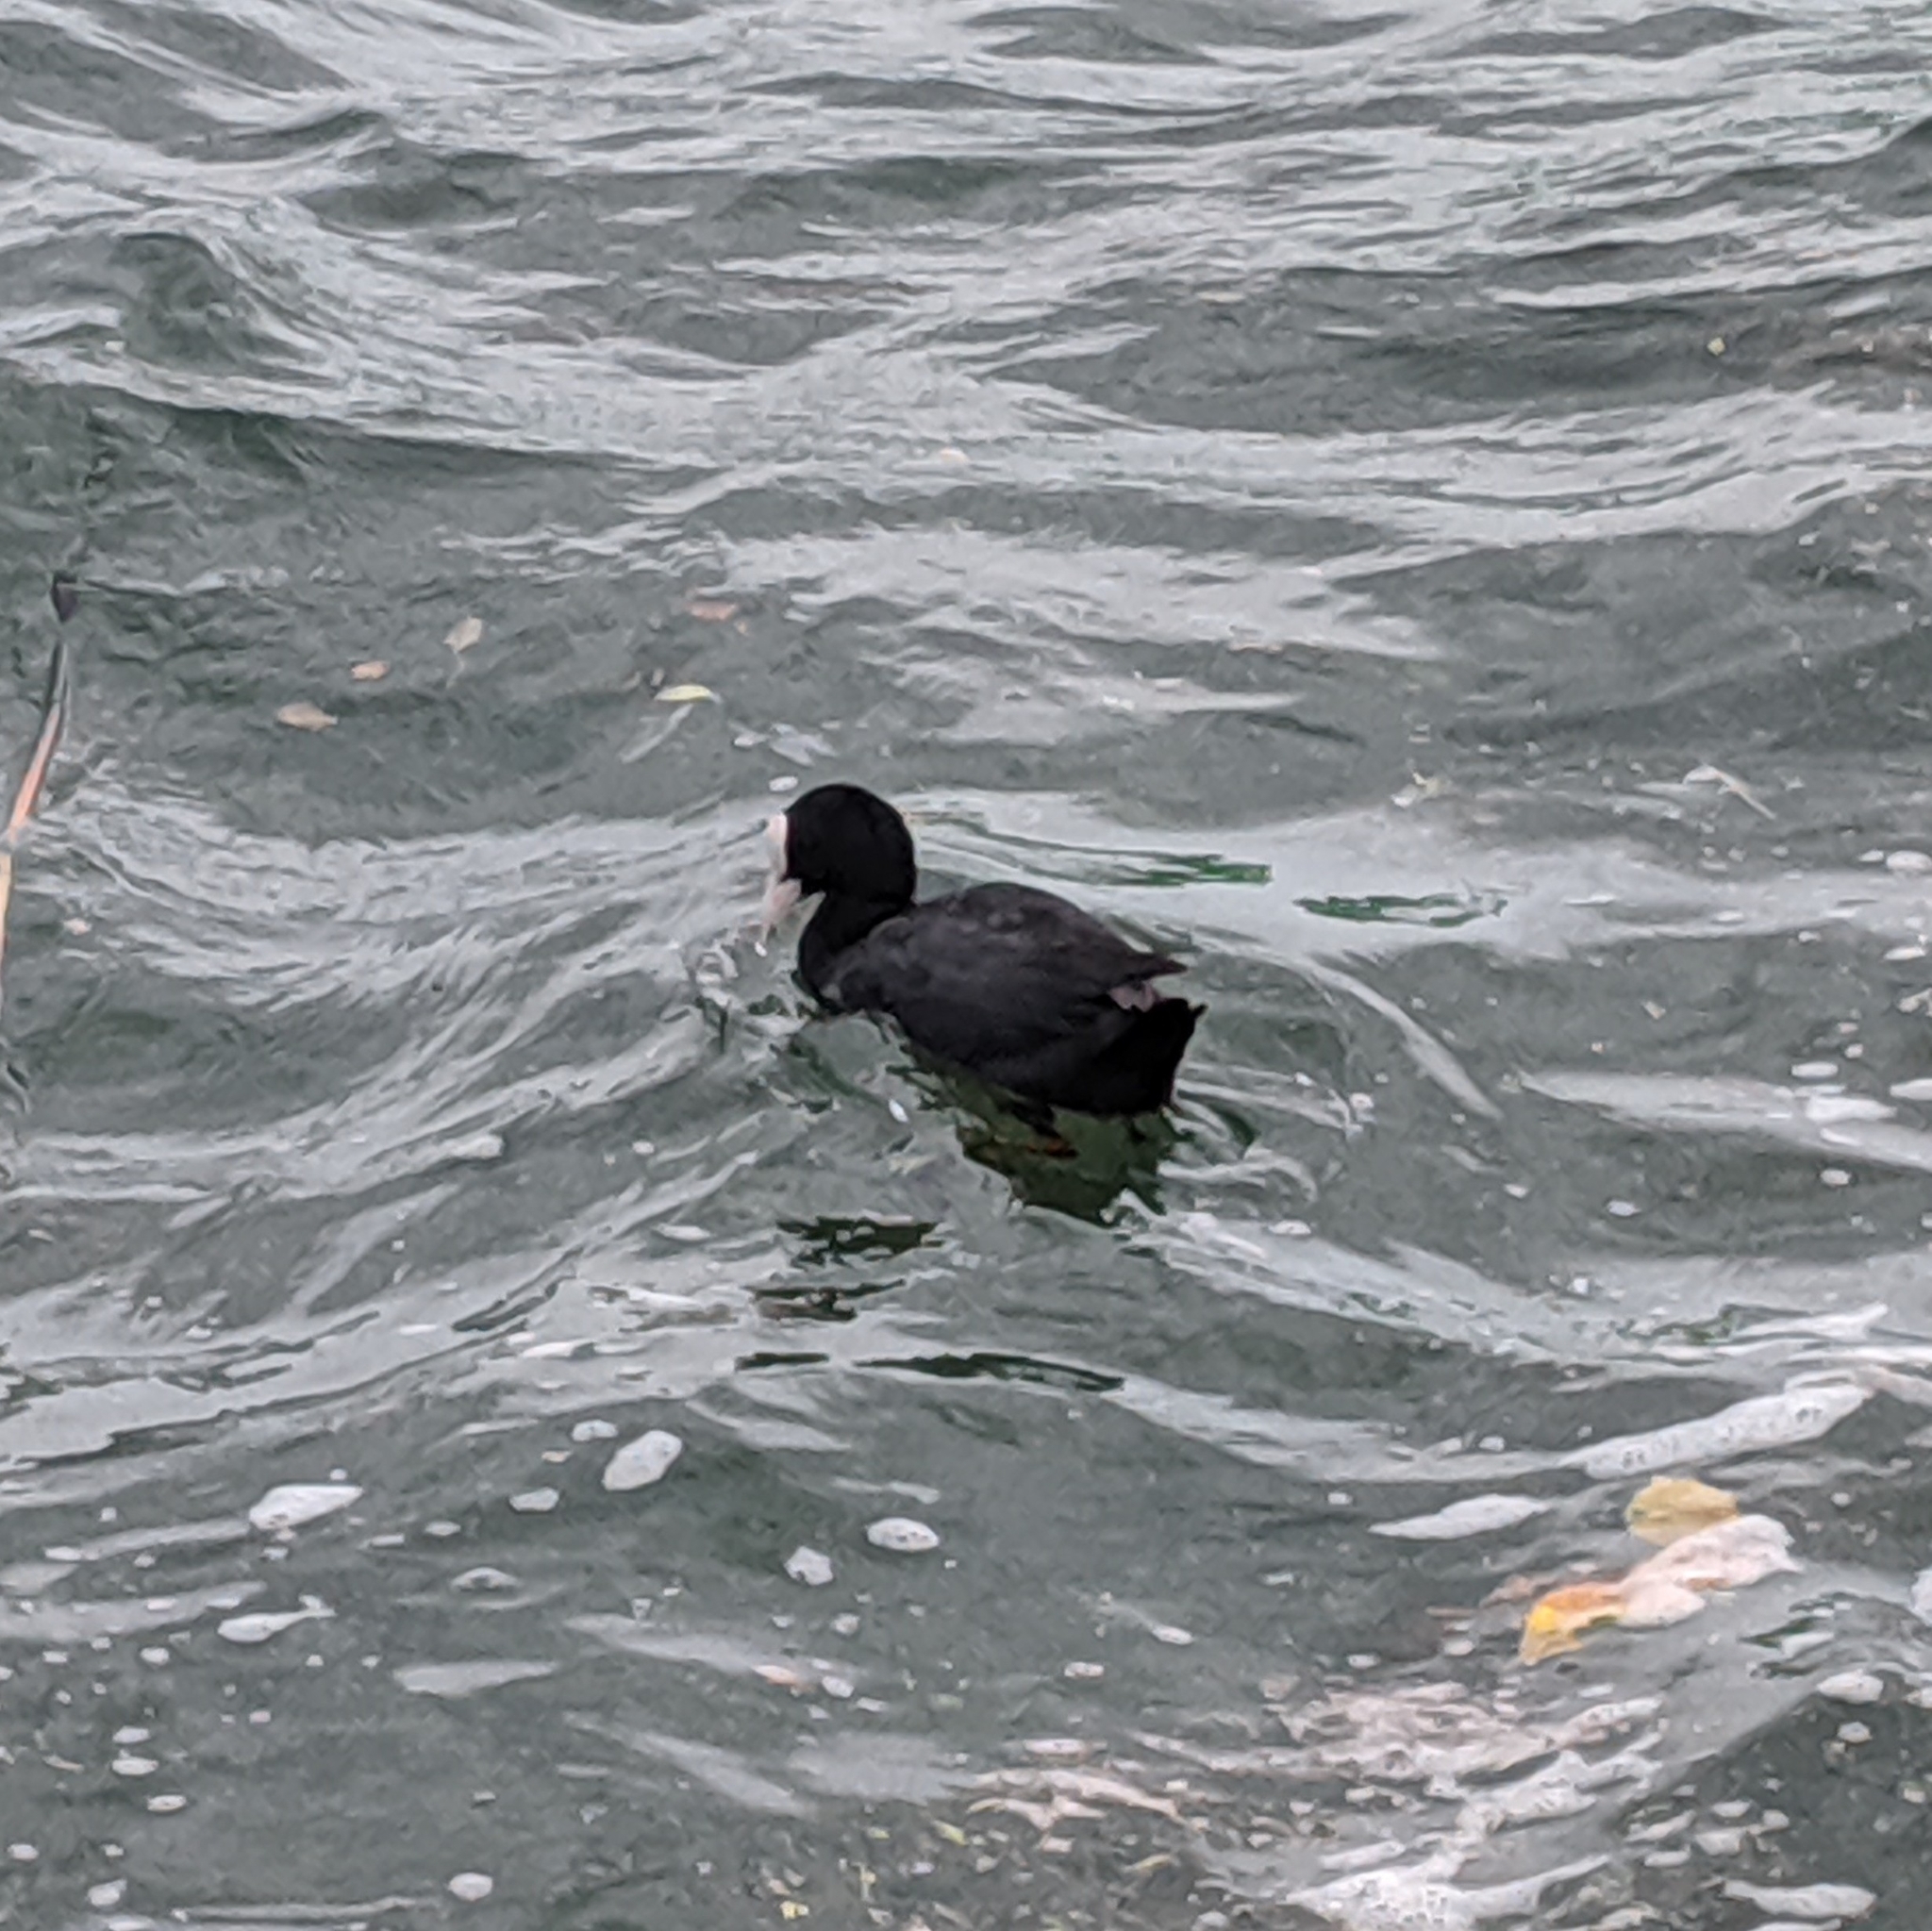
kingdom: Animalia
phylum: Chordata
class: Aves
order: Gruiformes
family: Rallidae
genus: Fulica
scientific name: Fulica atra
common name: Eurasian coot
